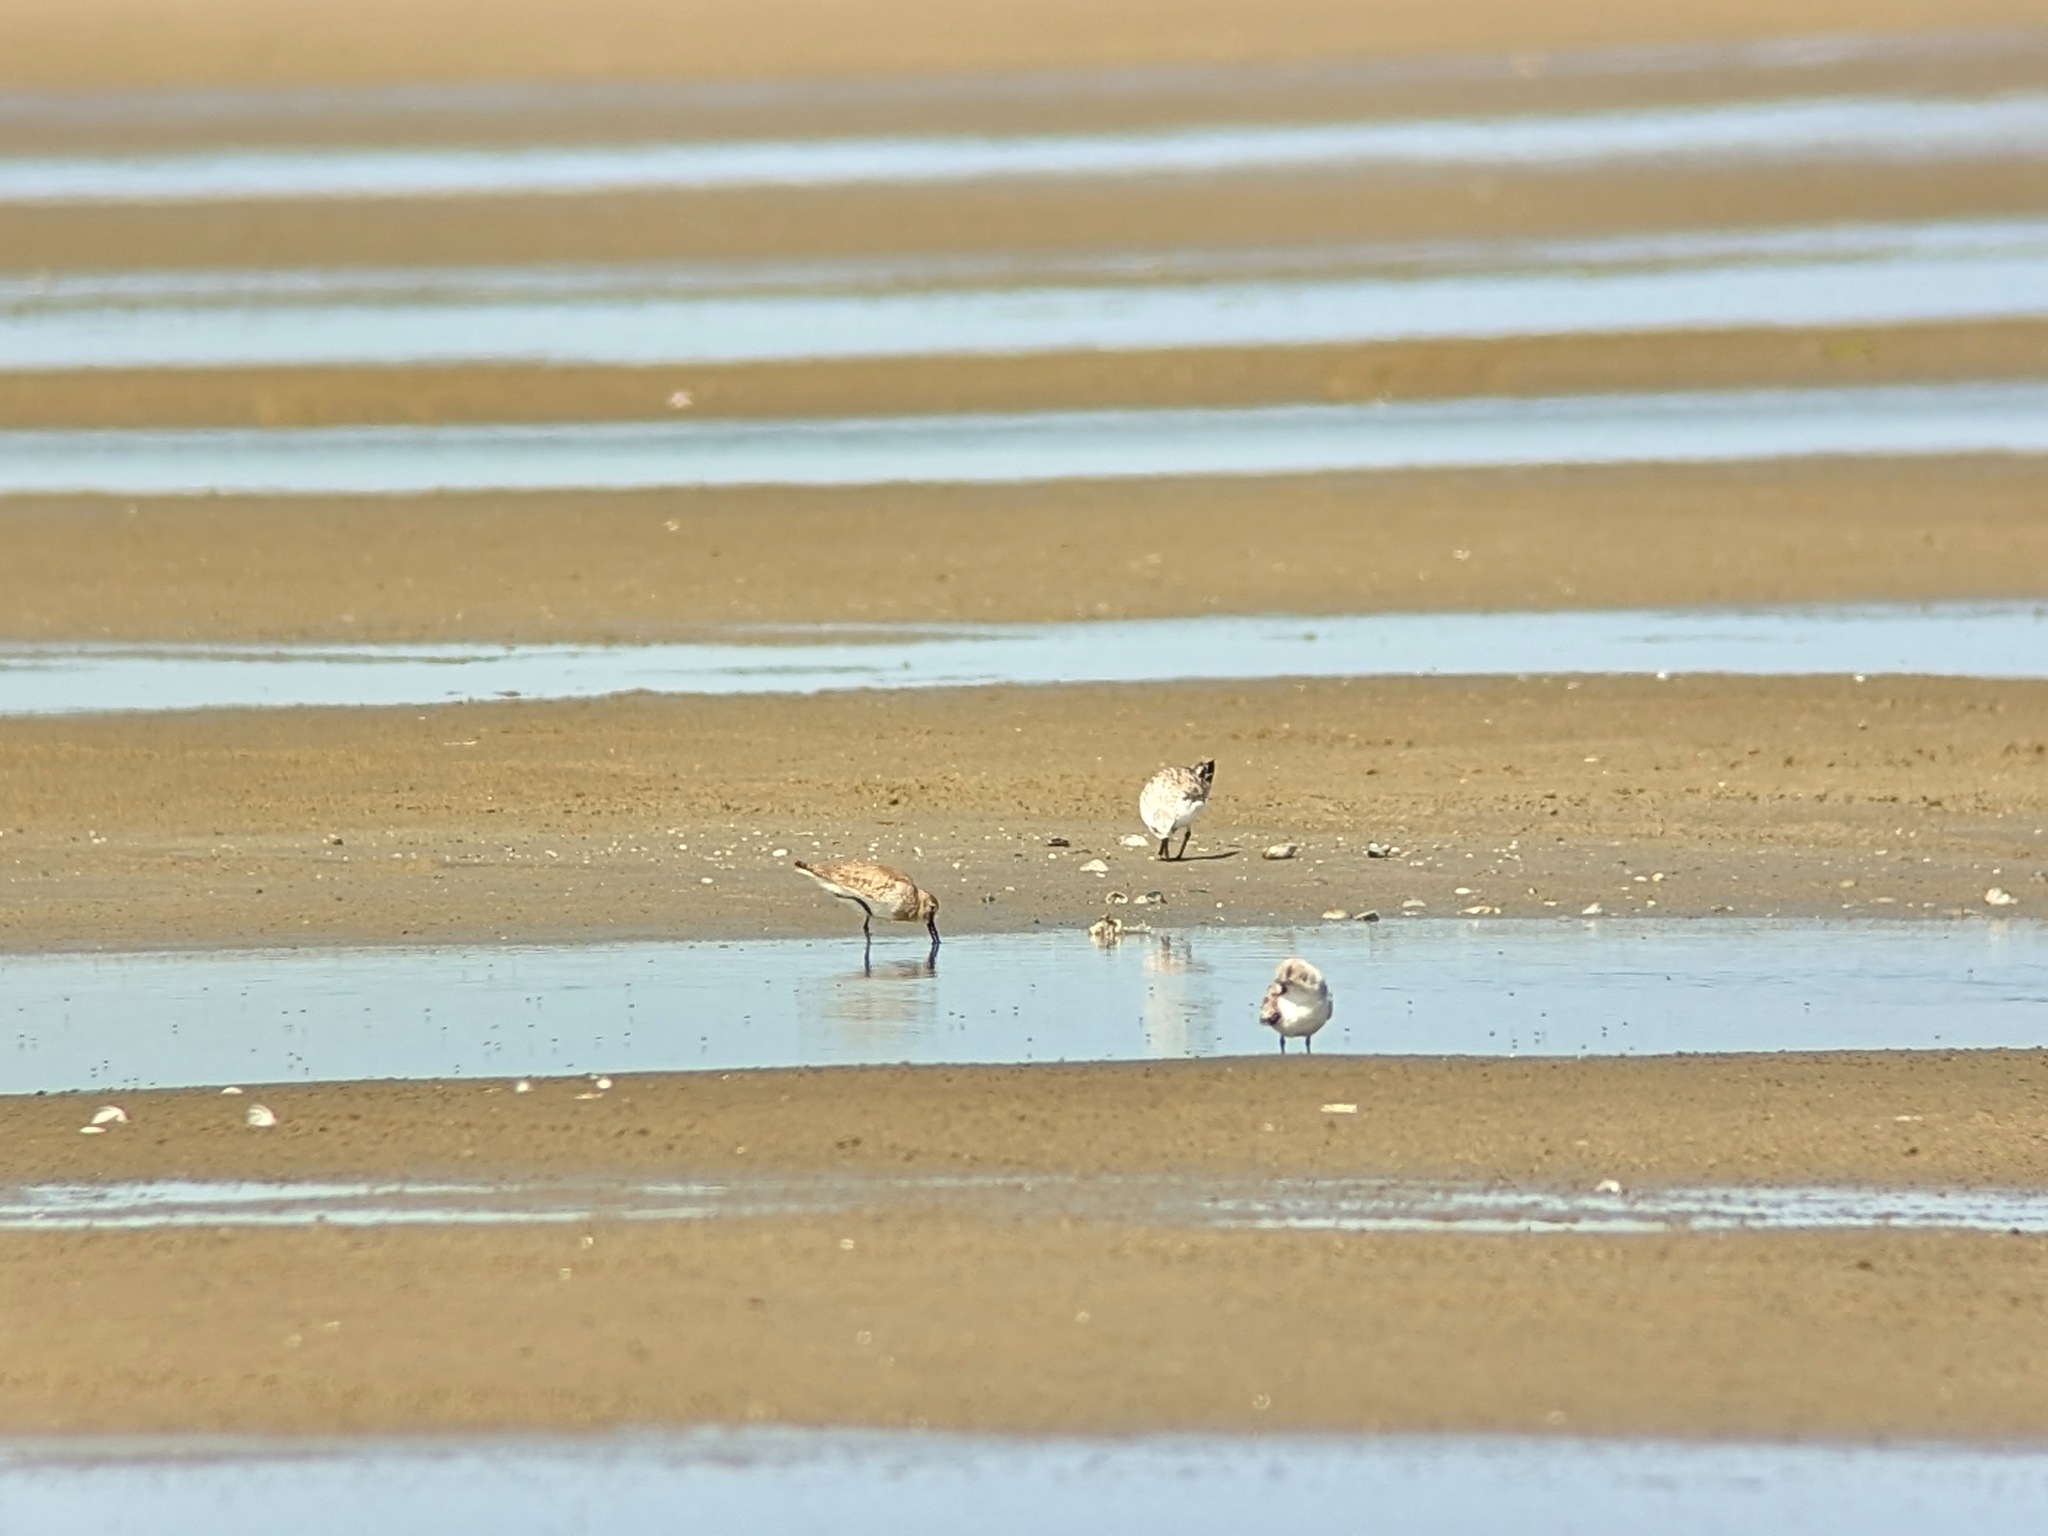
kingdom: Animalia
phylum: Chordata
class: Aves
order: Charadriiformes
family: Scolopacidae
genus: Calidris
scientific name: Calidris alpina
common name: Dunlin
